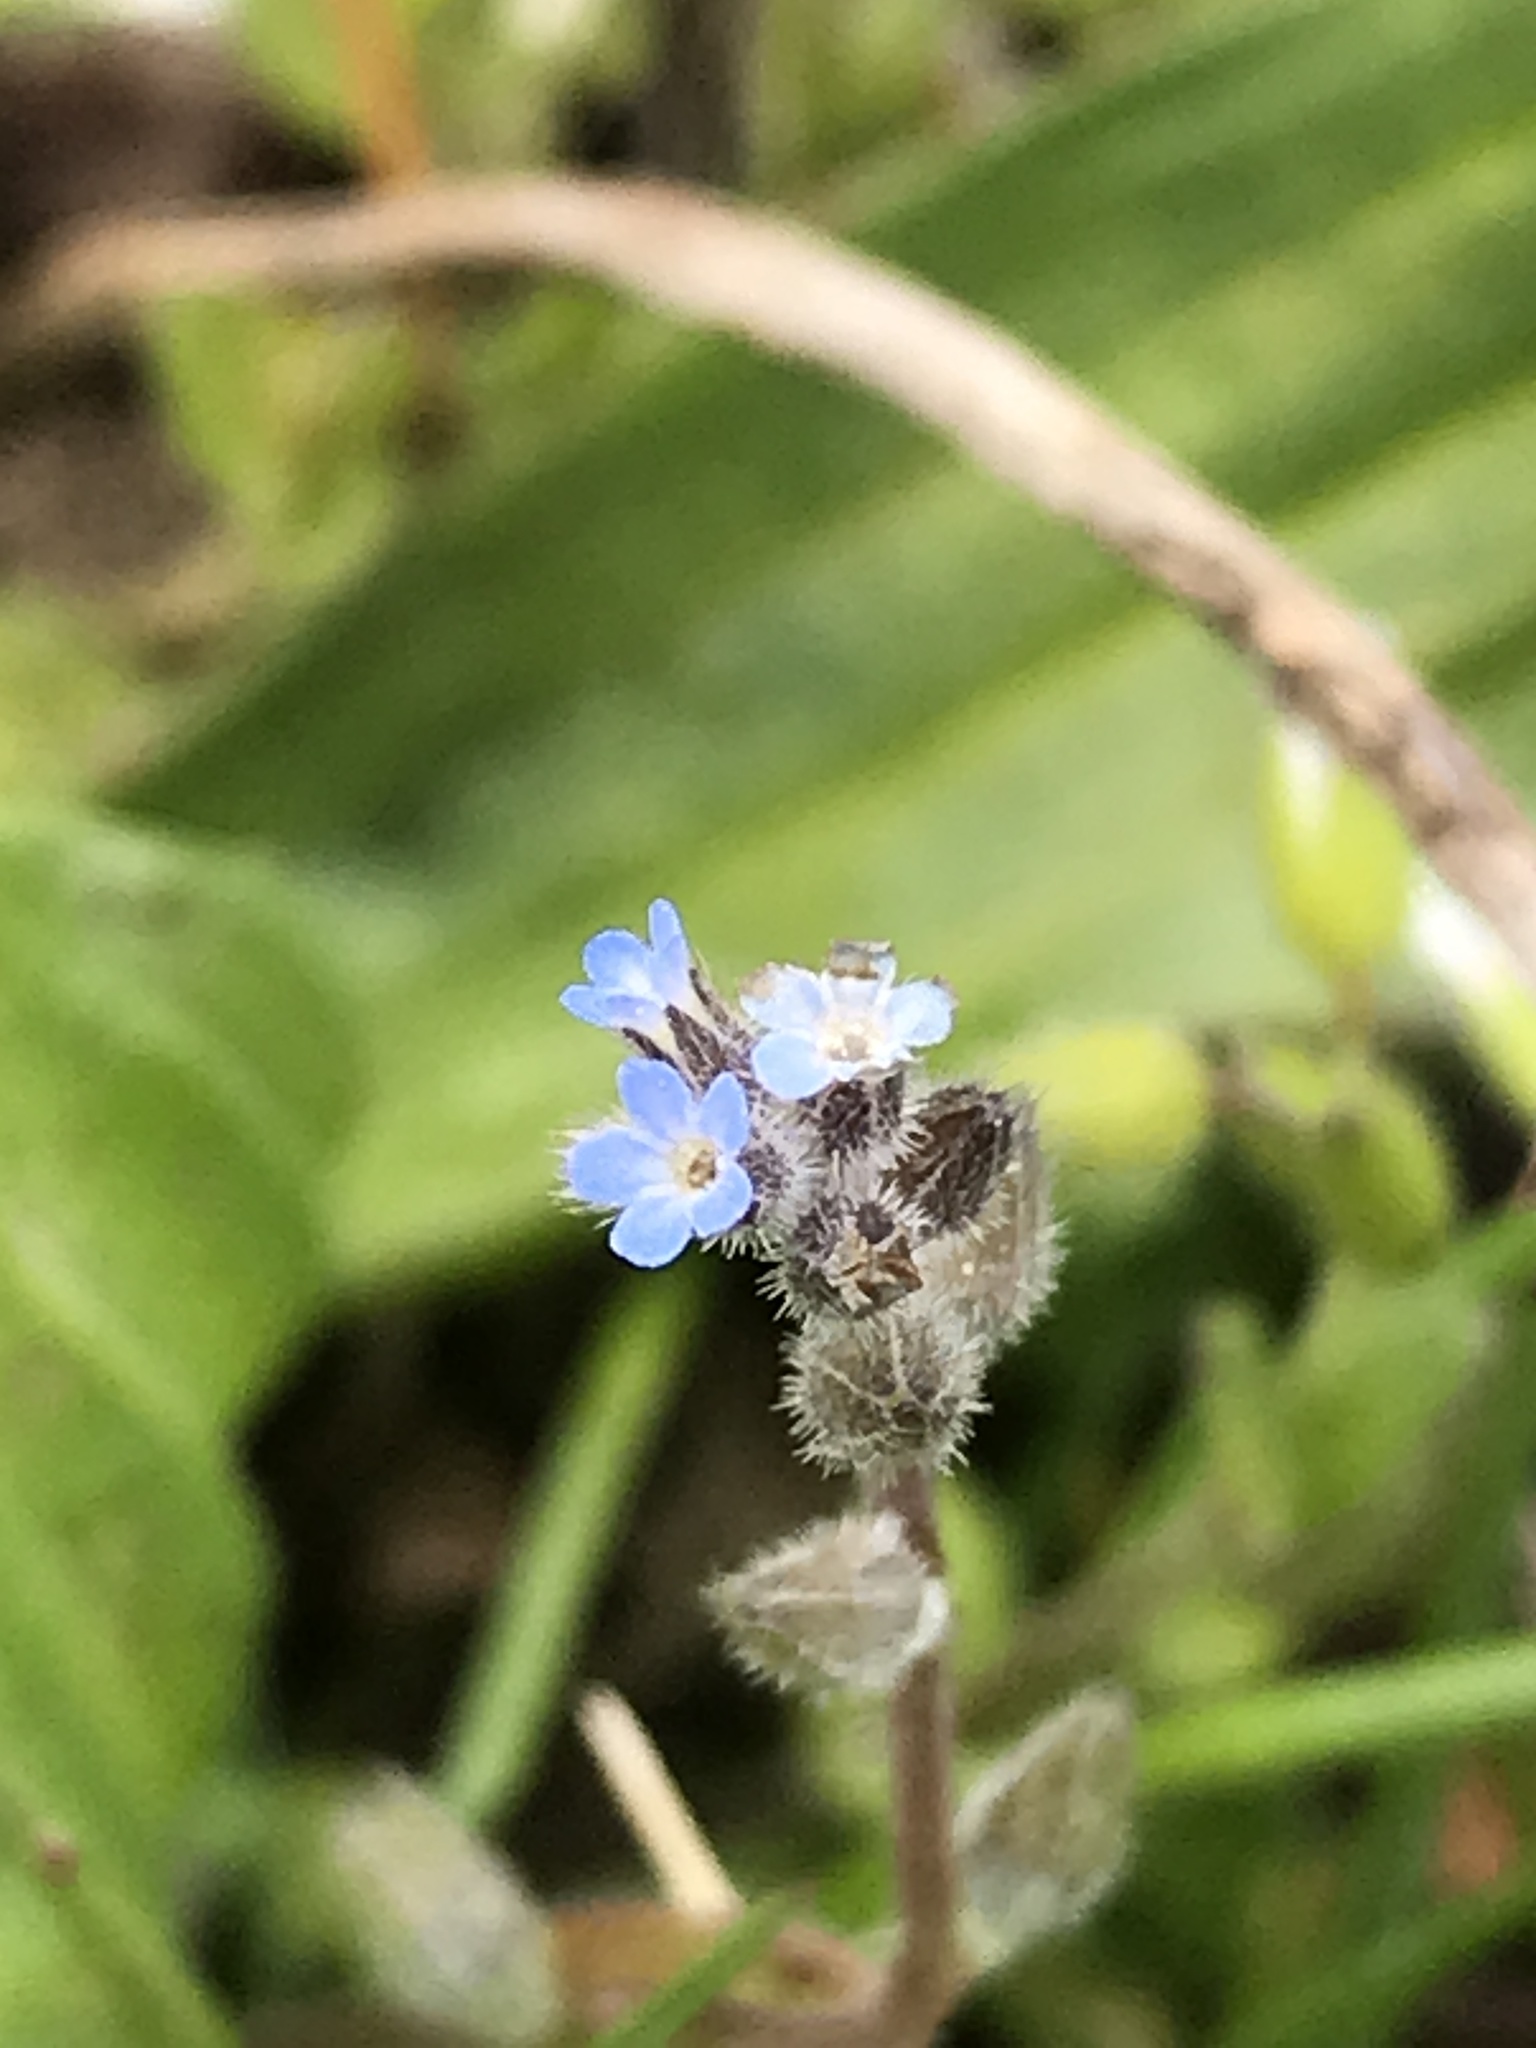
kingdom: Plantae
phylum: Tracheophyta
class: Magnoliopsida
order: Boraginales
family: Boraginaceae
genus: Myosotis
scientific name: Myosotis stricta
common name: Strict forget-me-not
